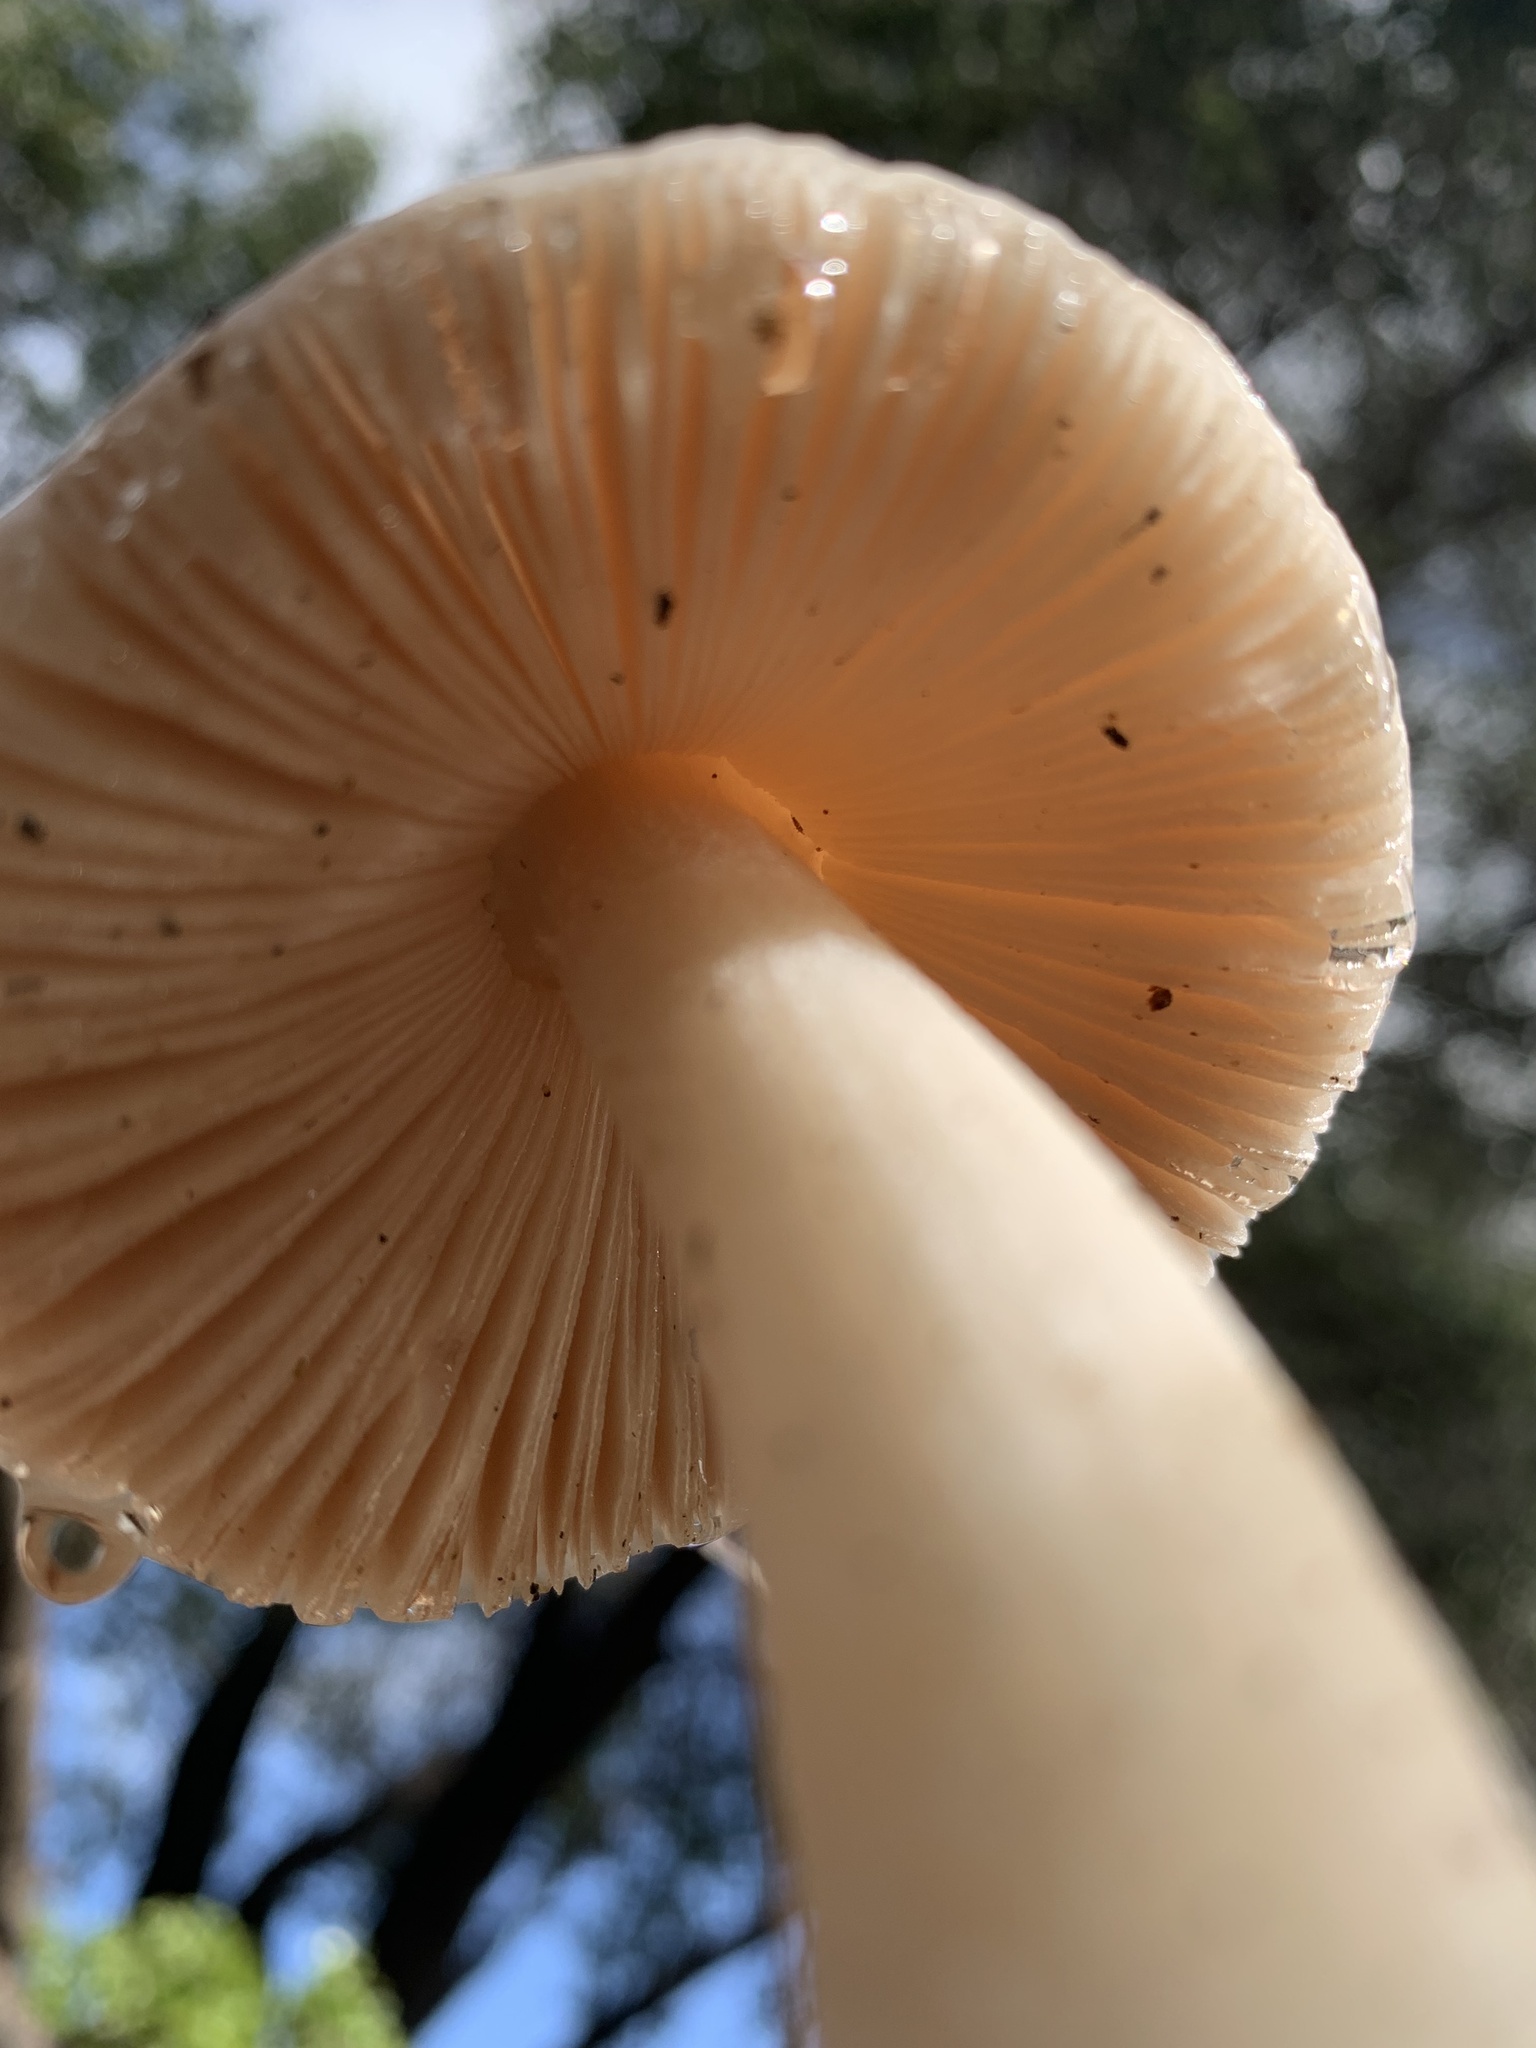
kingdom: Fungi
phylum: Basidiomycota
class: Agaricomycetes
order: Agaricales
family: Pluteaceae
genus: Volvopluteus
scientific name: Volvopluteus gloiocephalus
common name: Stubble rosegill
